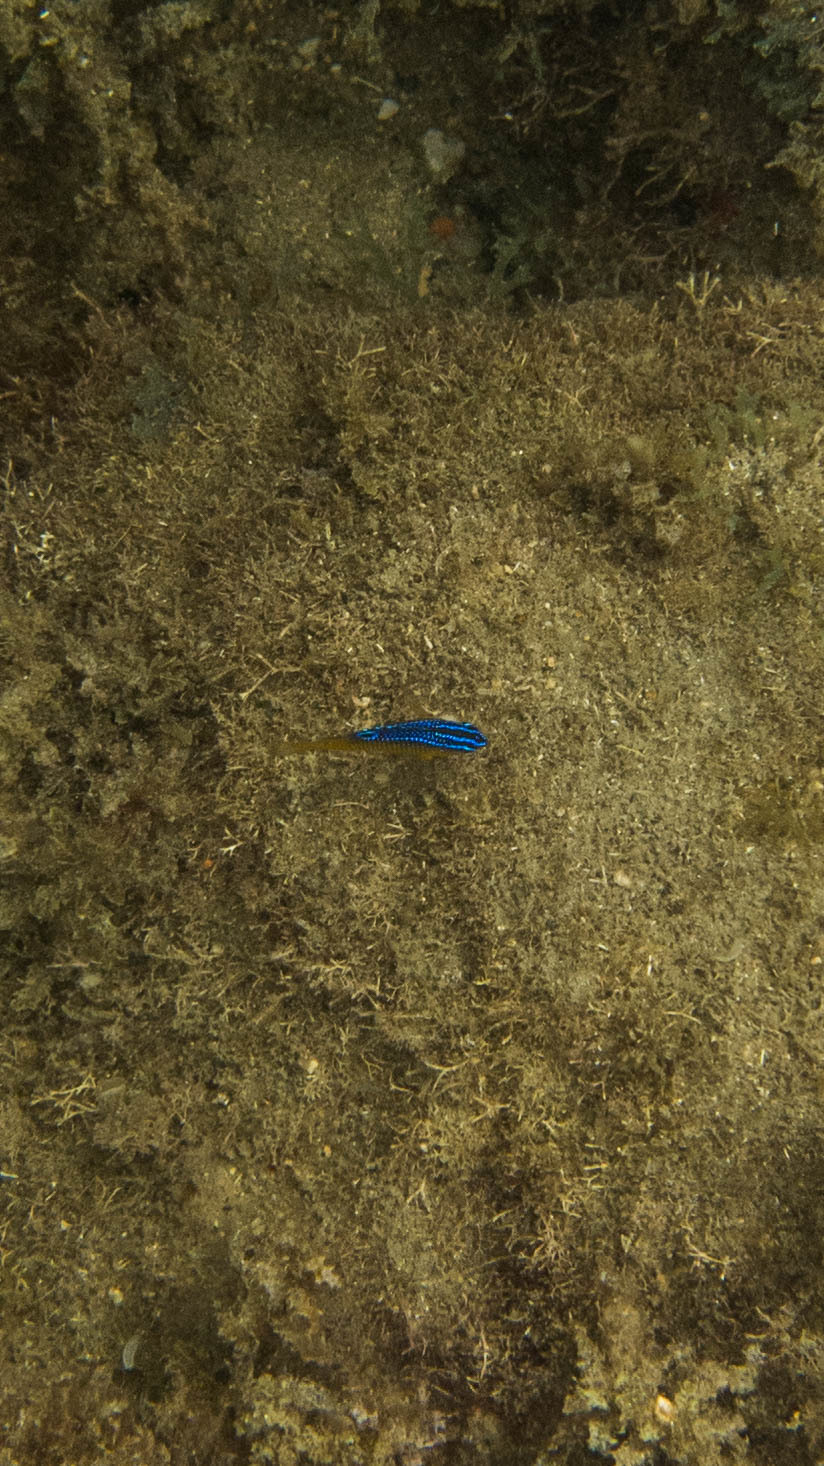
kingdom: Animalia
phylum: Chordata
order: Perciformes
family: Pomacentridae
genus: Stegastes
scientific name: Stegastes variabilis
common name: Cocoa damselfish
